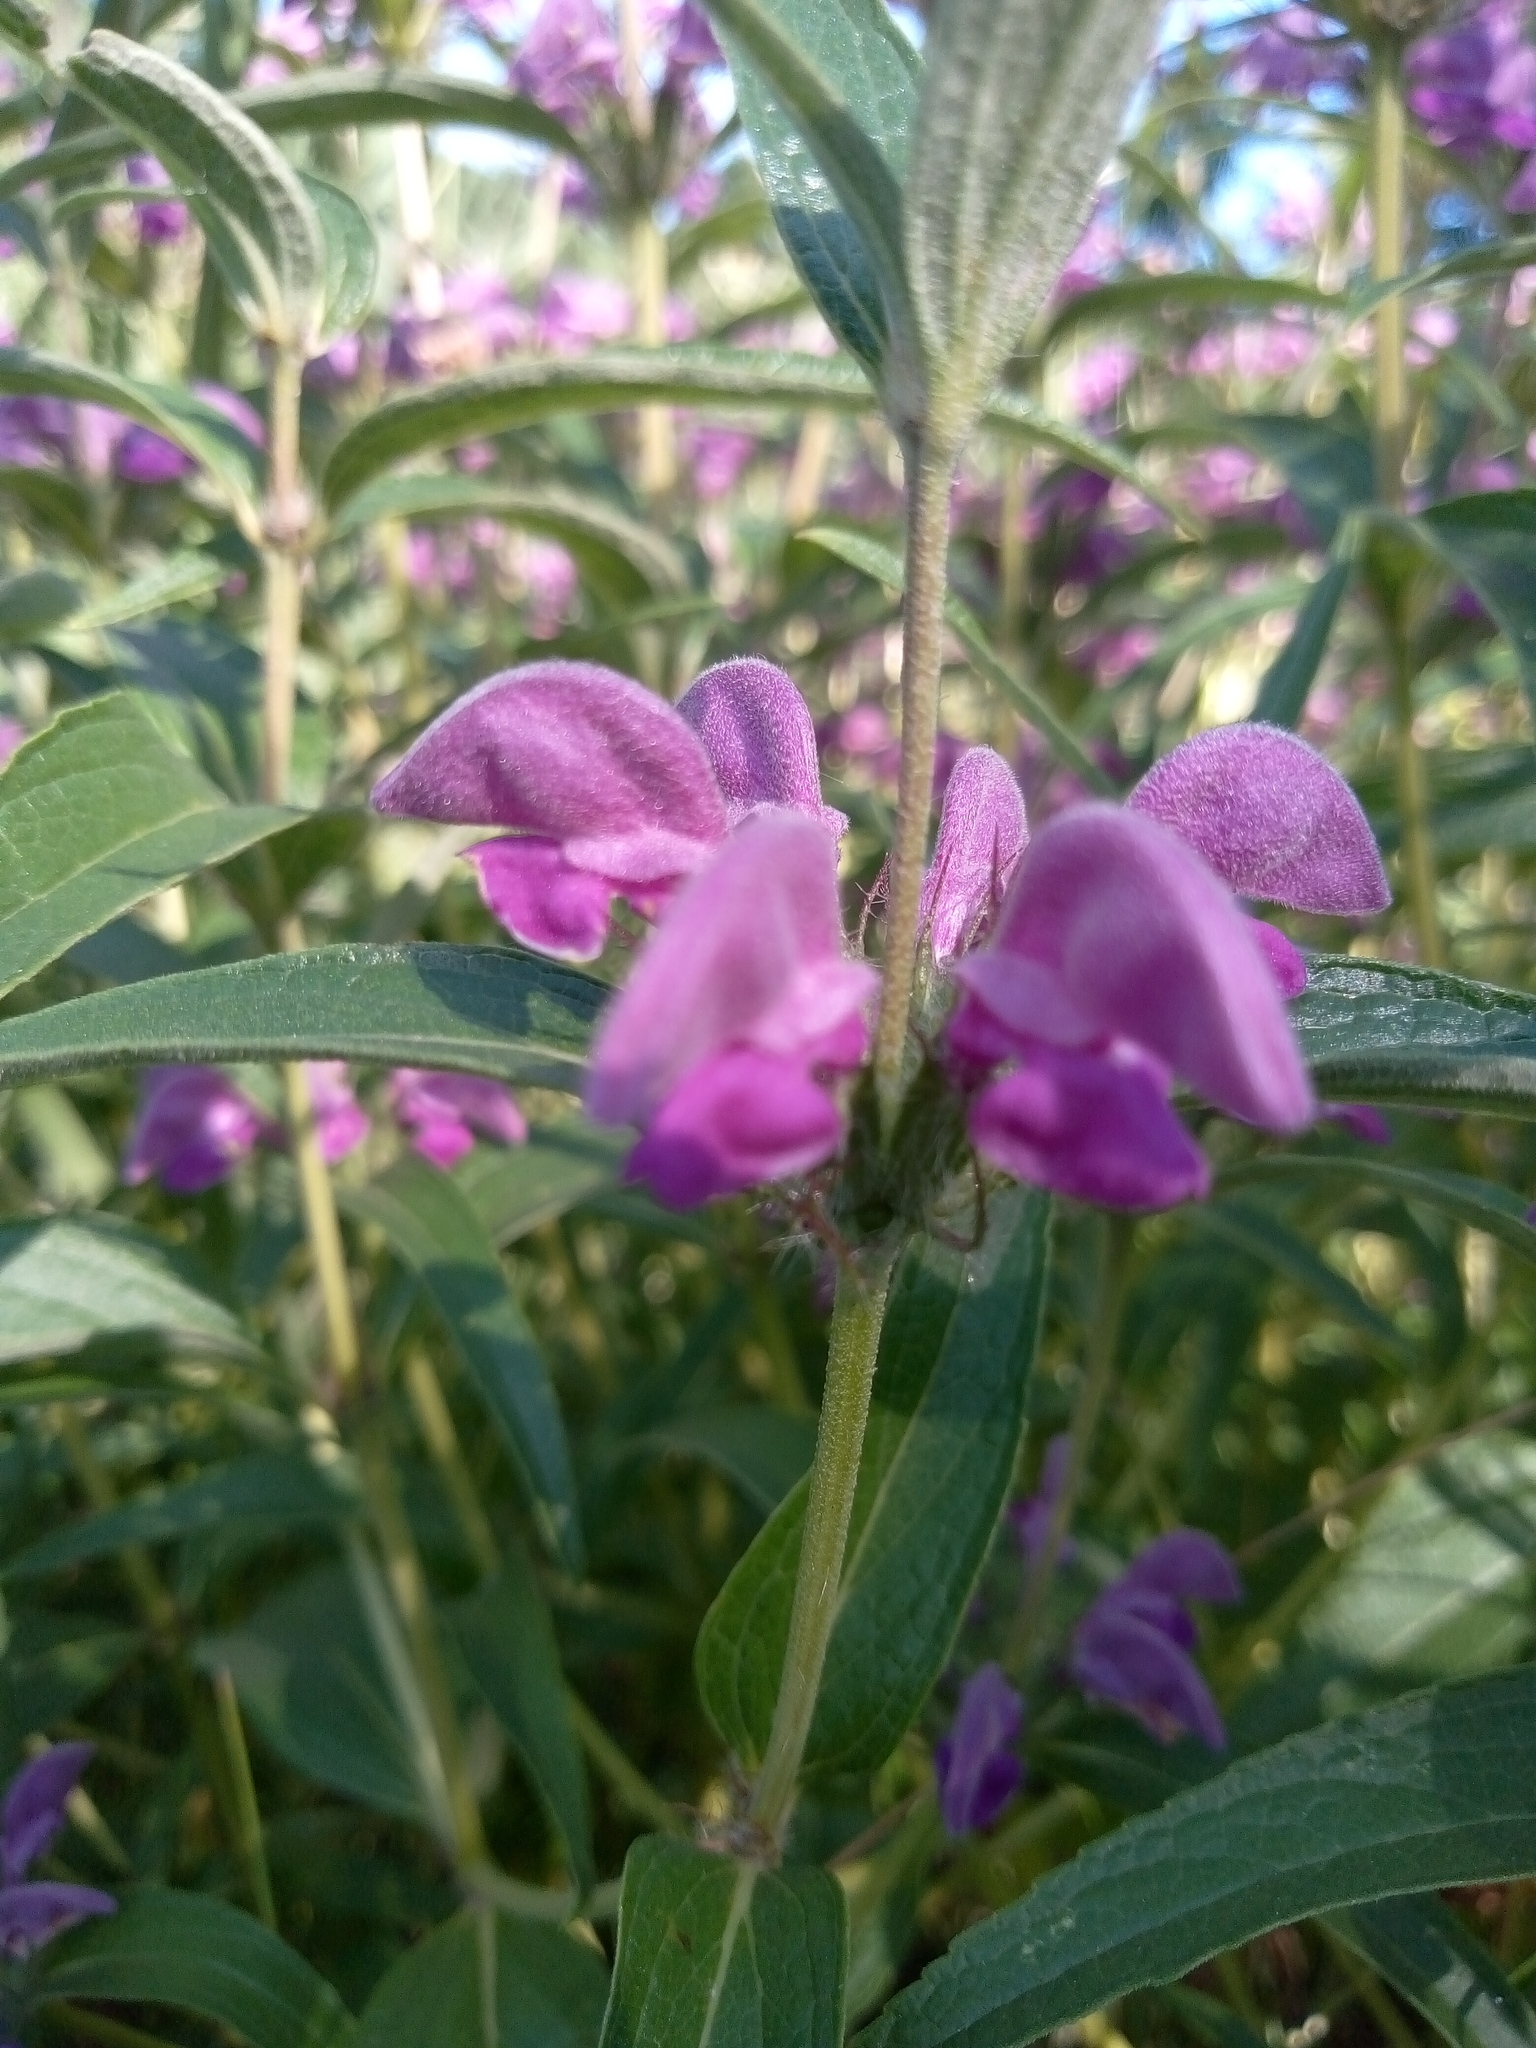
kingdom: Plantae
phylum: Tracheophyta
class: Magnoliopsida
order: Lamiales
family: Lamiaceae
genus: Phlomis
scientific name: Phlomis herba-venti
